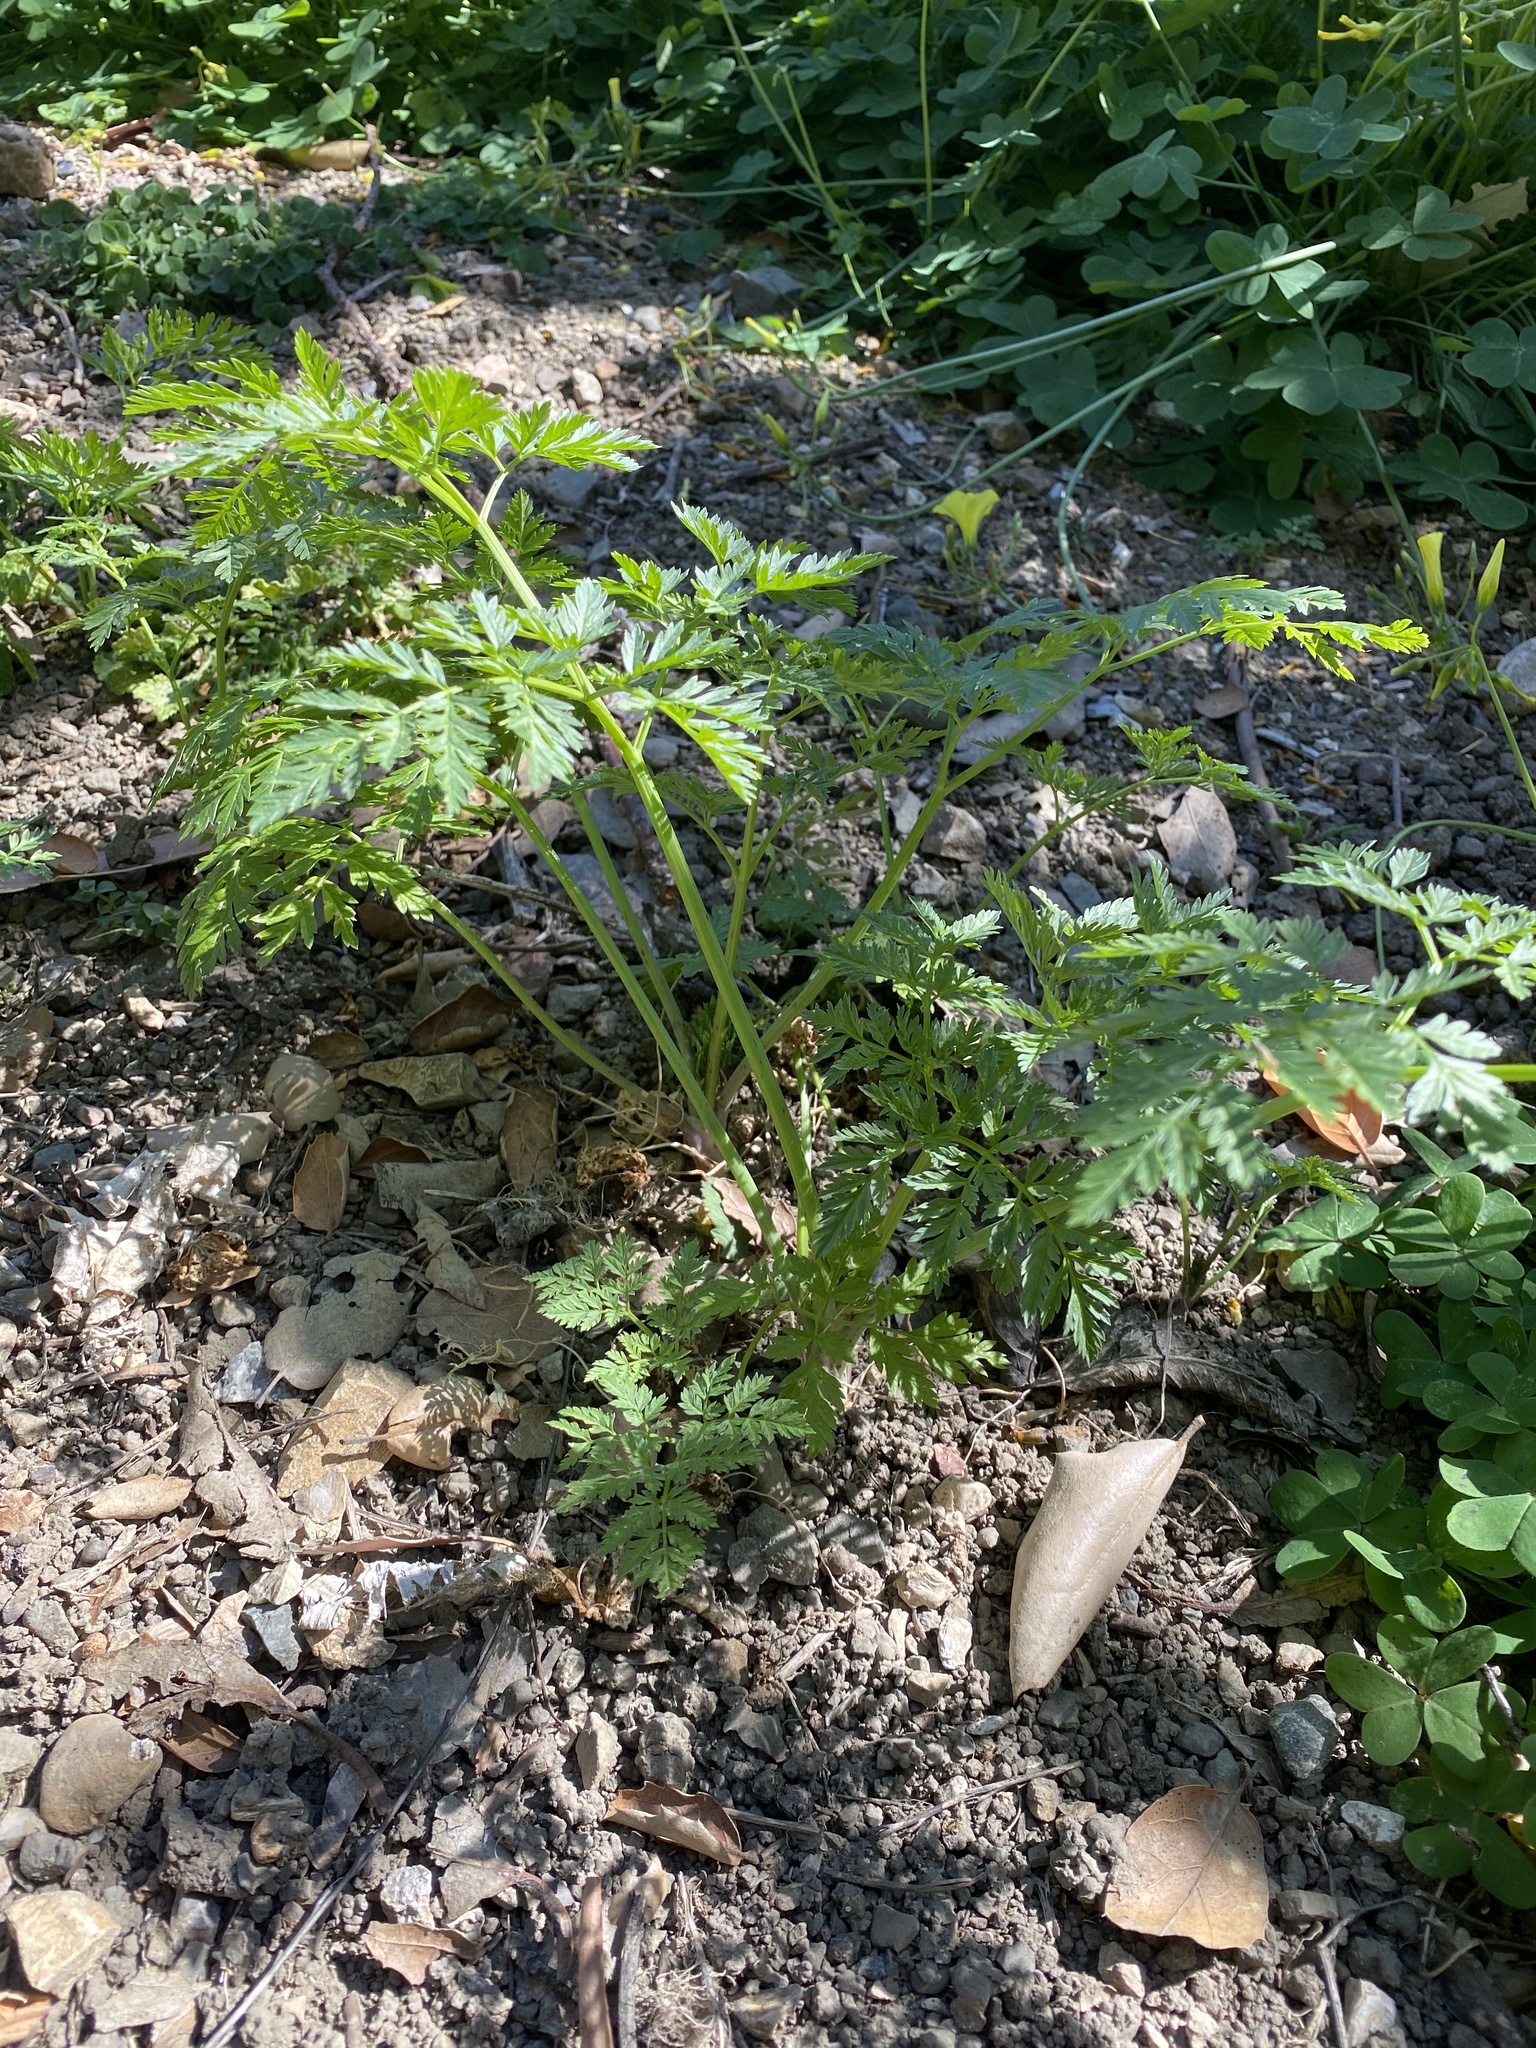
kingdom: Plantae
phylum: Tracheophyta
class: Magnoliopsida
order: Apiales
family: Apiaceae
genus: Conium
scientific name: Conium maculatum
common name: Hemlock
